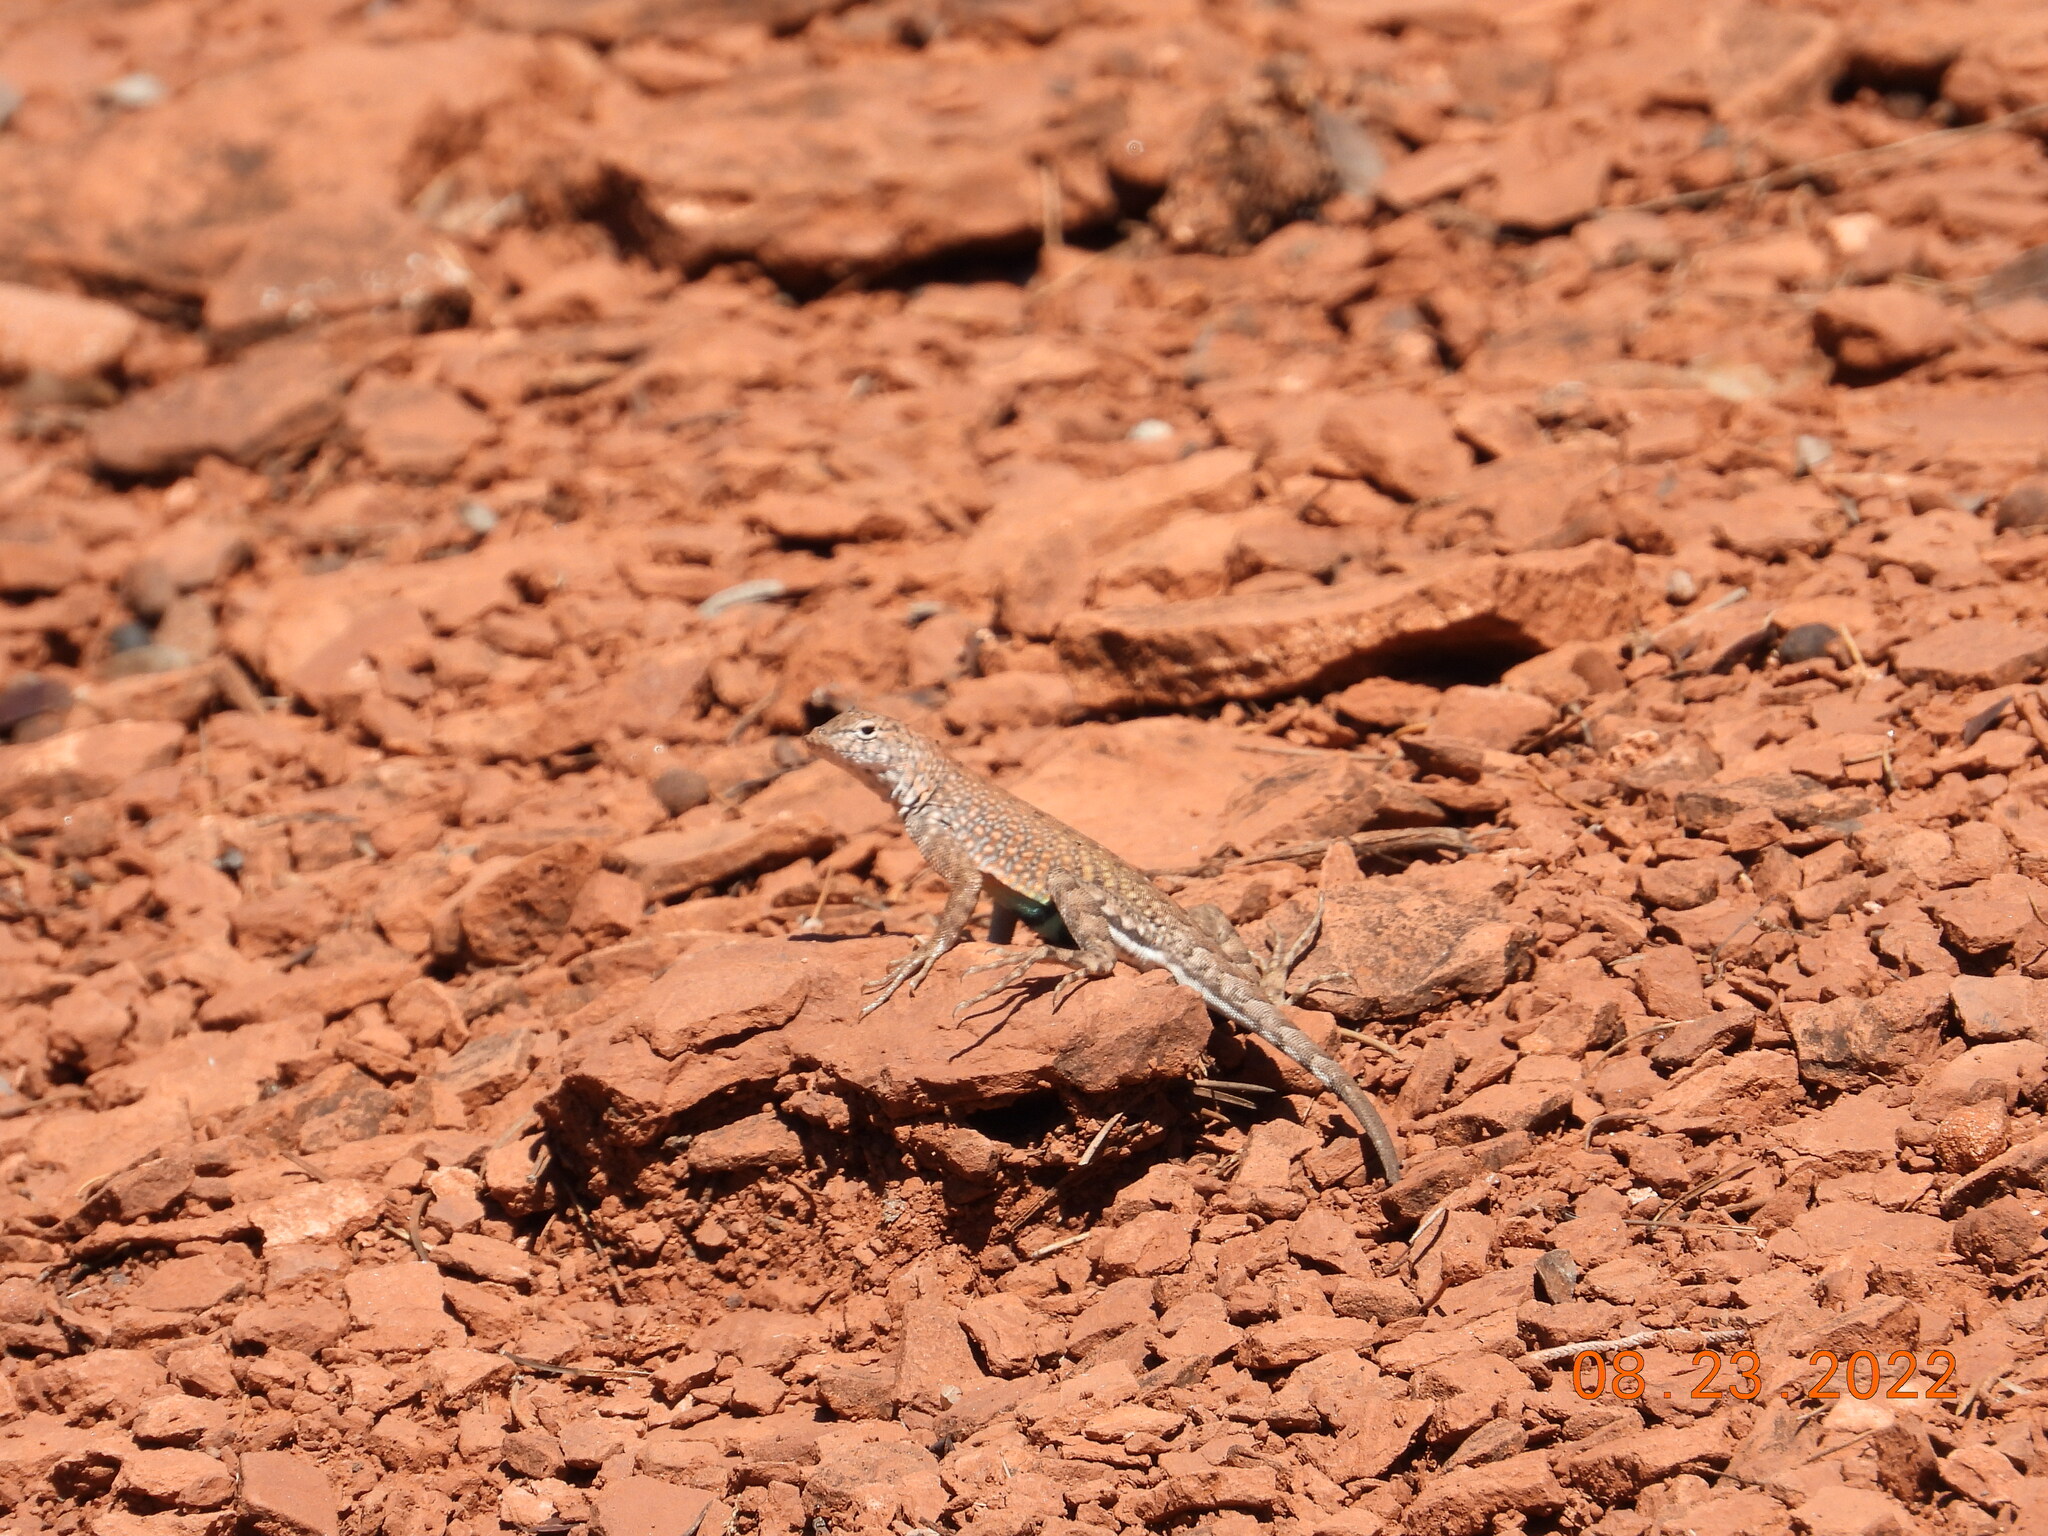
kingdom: Animalia
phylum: Chordata
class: Squamata
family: Phrynosomatidae
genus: Cophosaurus
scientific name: Cophosaurus texanus
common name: Greater earless lizard
